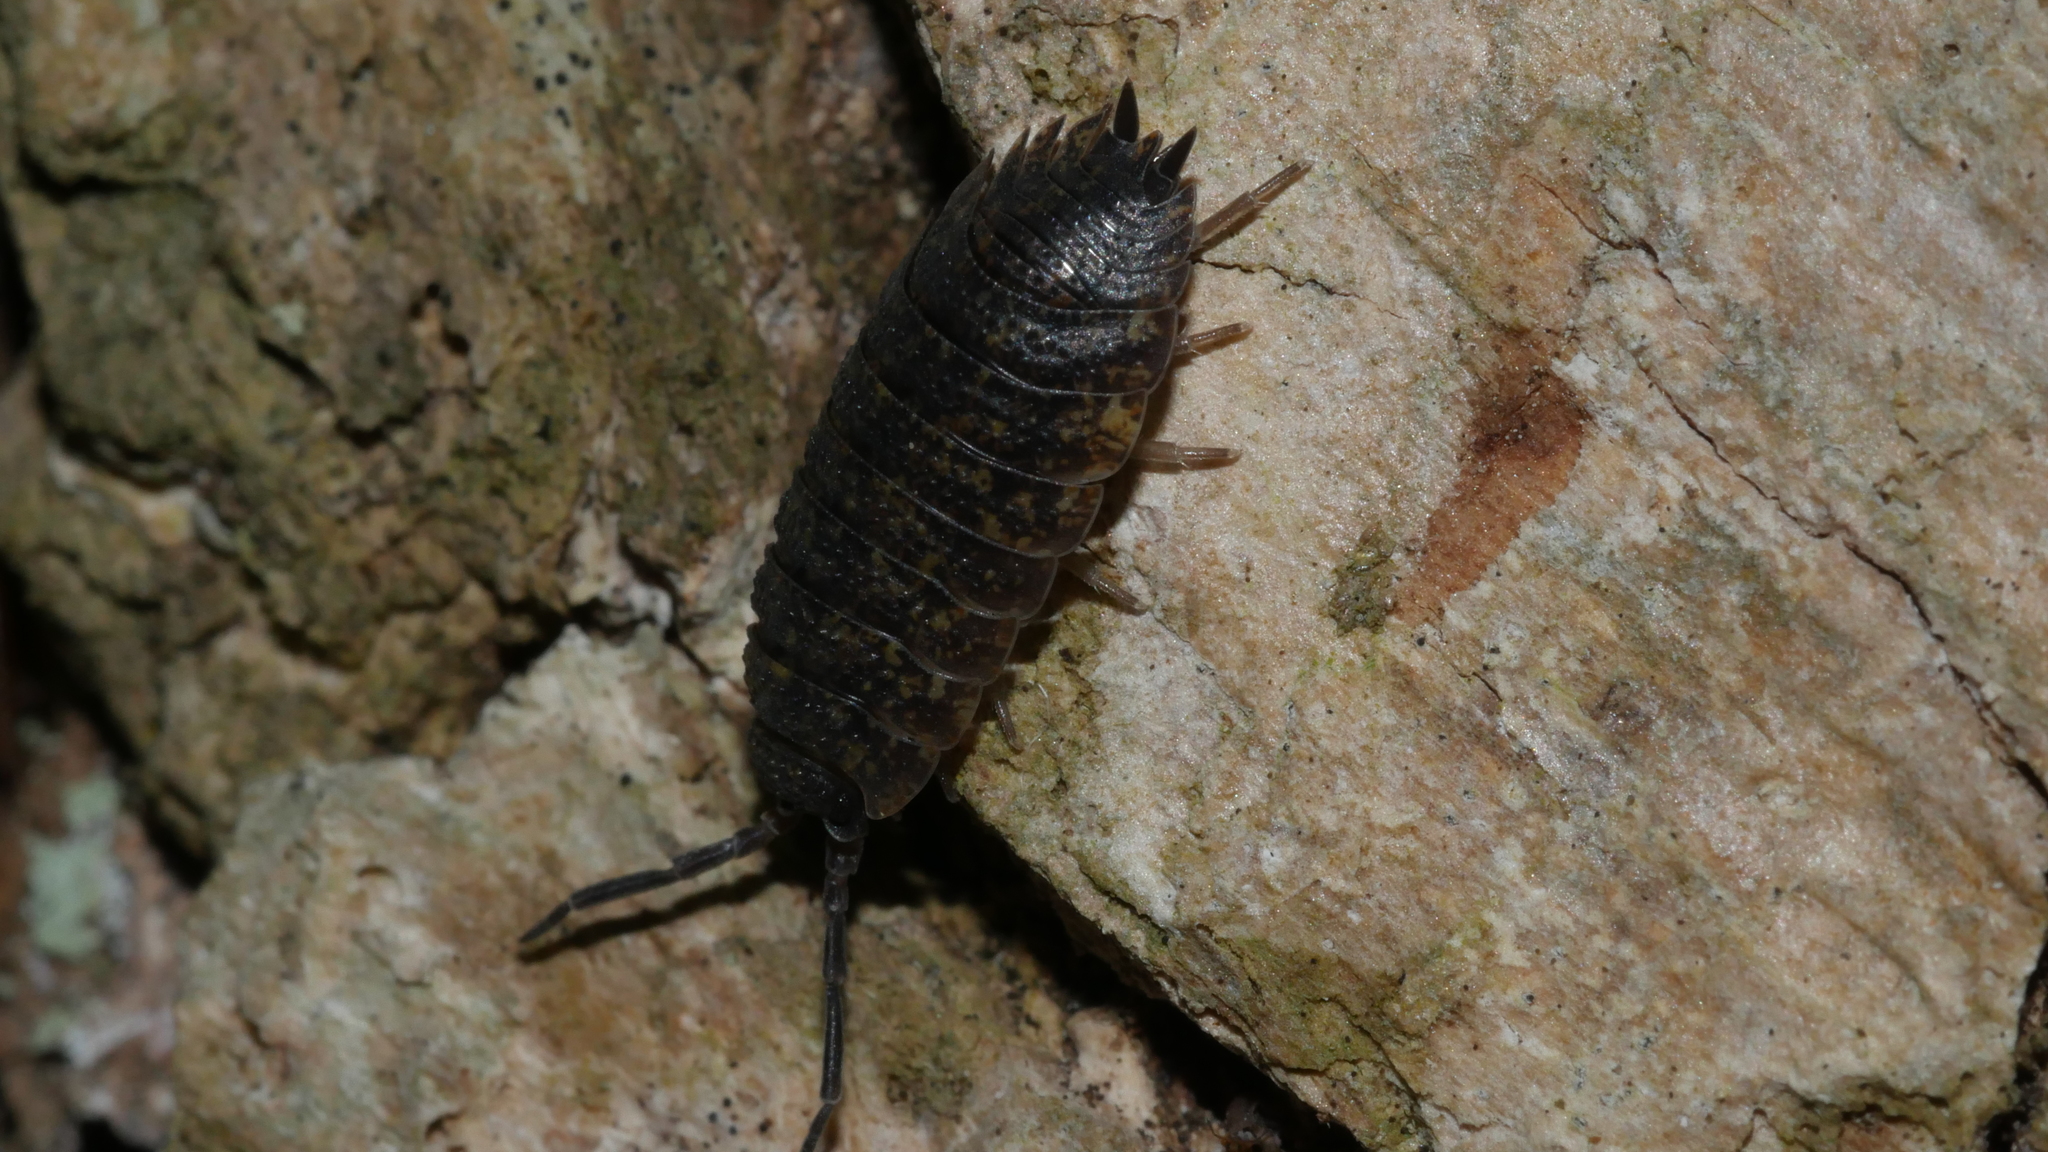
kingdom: Animalia
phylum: Arthropoda
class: Malacostraca
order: Isopoda
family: Porcellionidae
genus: Porcellio
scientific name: Porcellio scaber
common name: Common rough woodlouse
